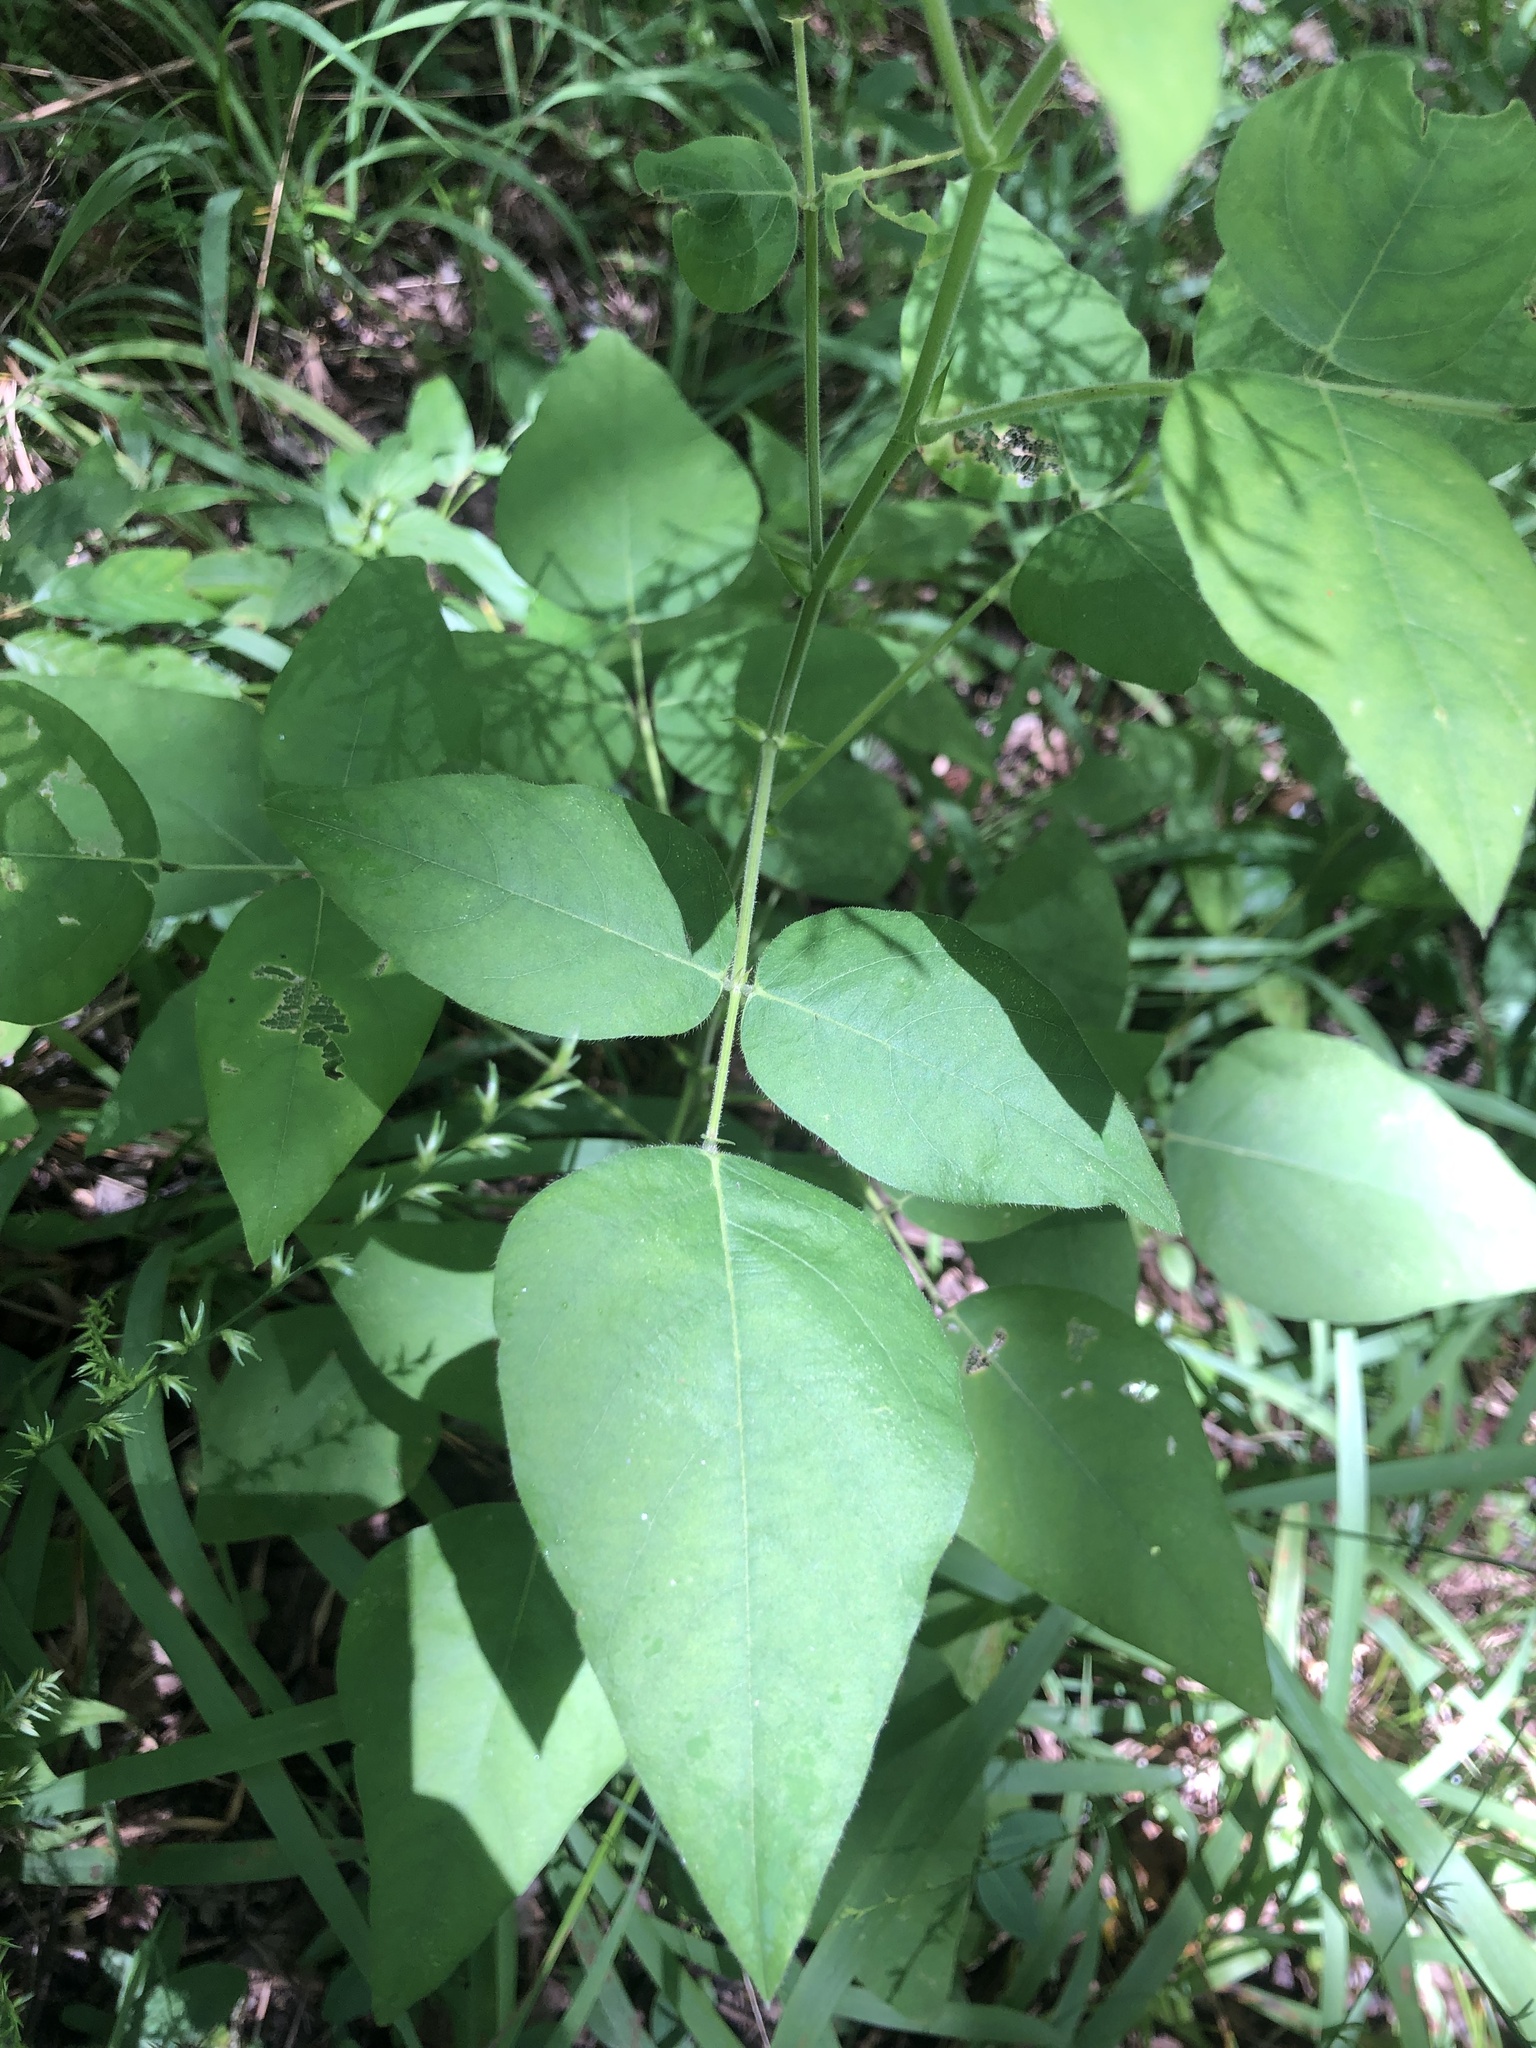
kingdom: Plantae
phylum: Tracheophyta
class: Magnoliopsida
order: Fabales
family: Fabaceae
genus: Desmodium
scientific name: Desmodium canescens
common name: Hoary tick-clover
